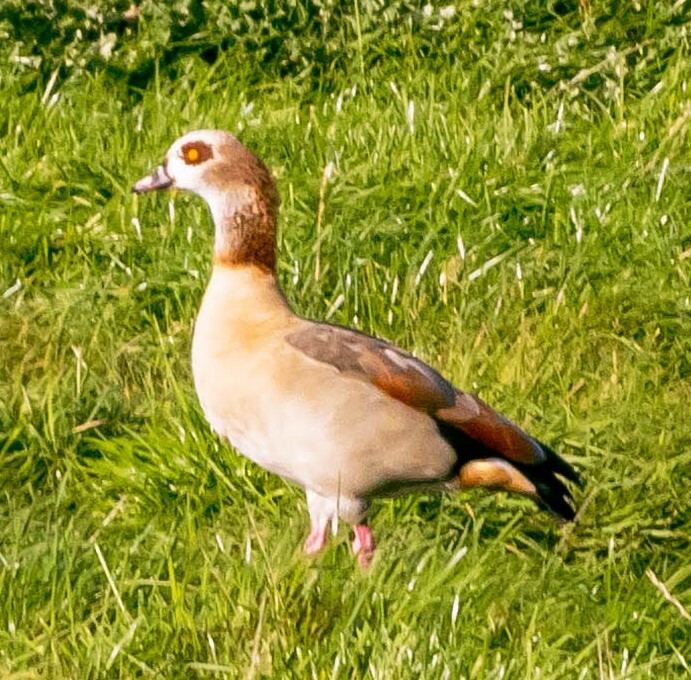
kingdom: Animalia
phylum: Chordata
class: Aves
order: Anseriformes
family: Anatidae
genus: Alopochen
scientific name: Alopochen aegyptiaca
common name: Egyptian goose
